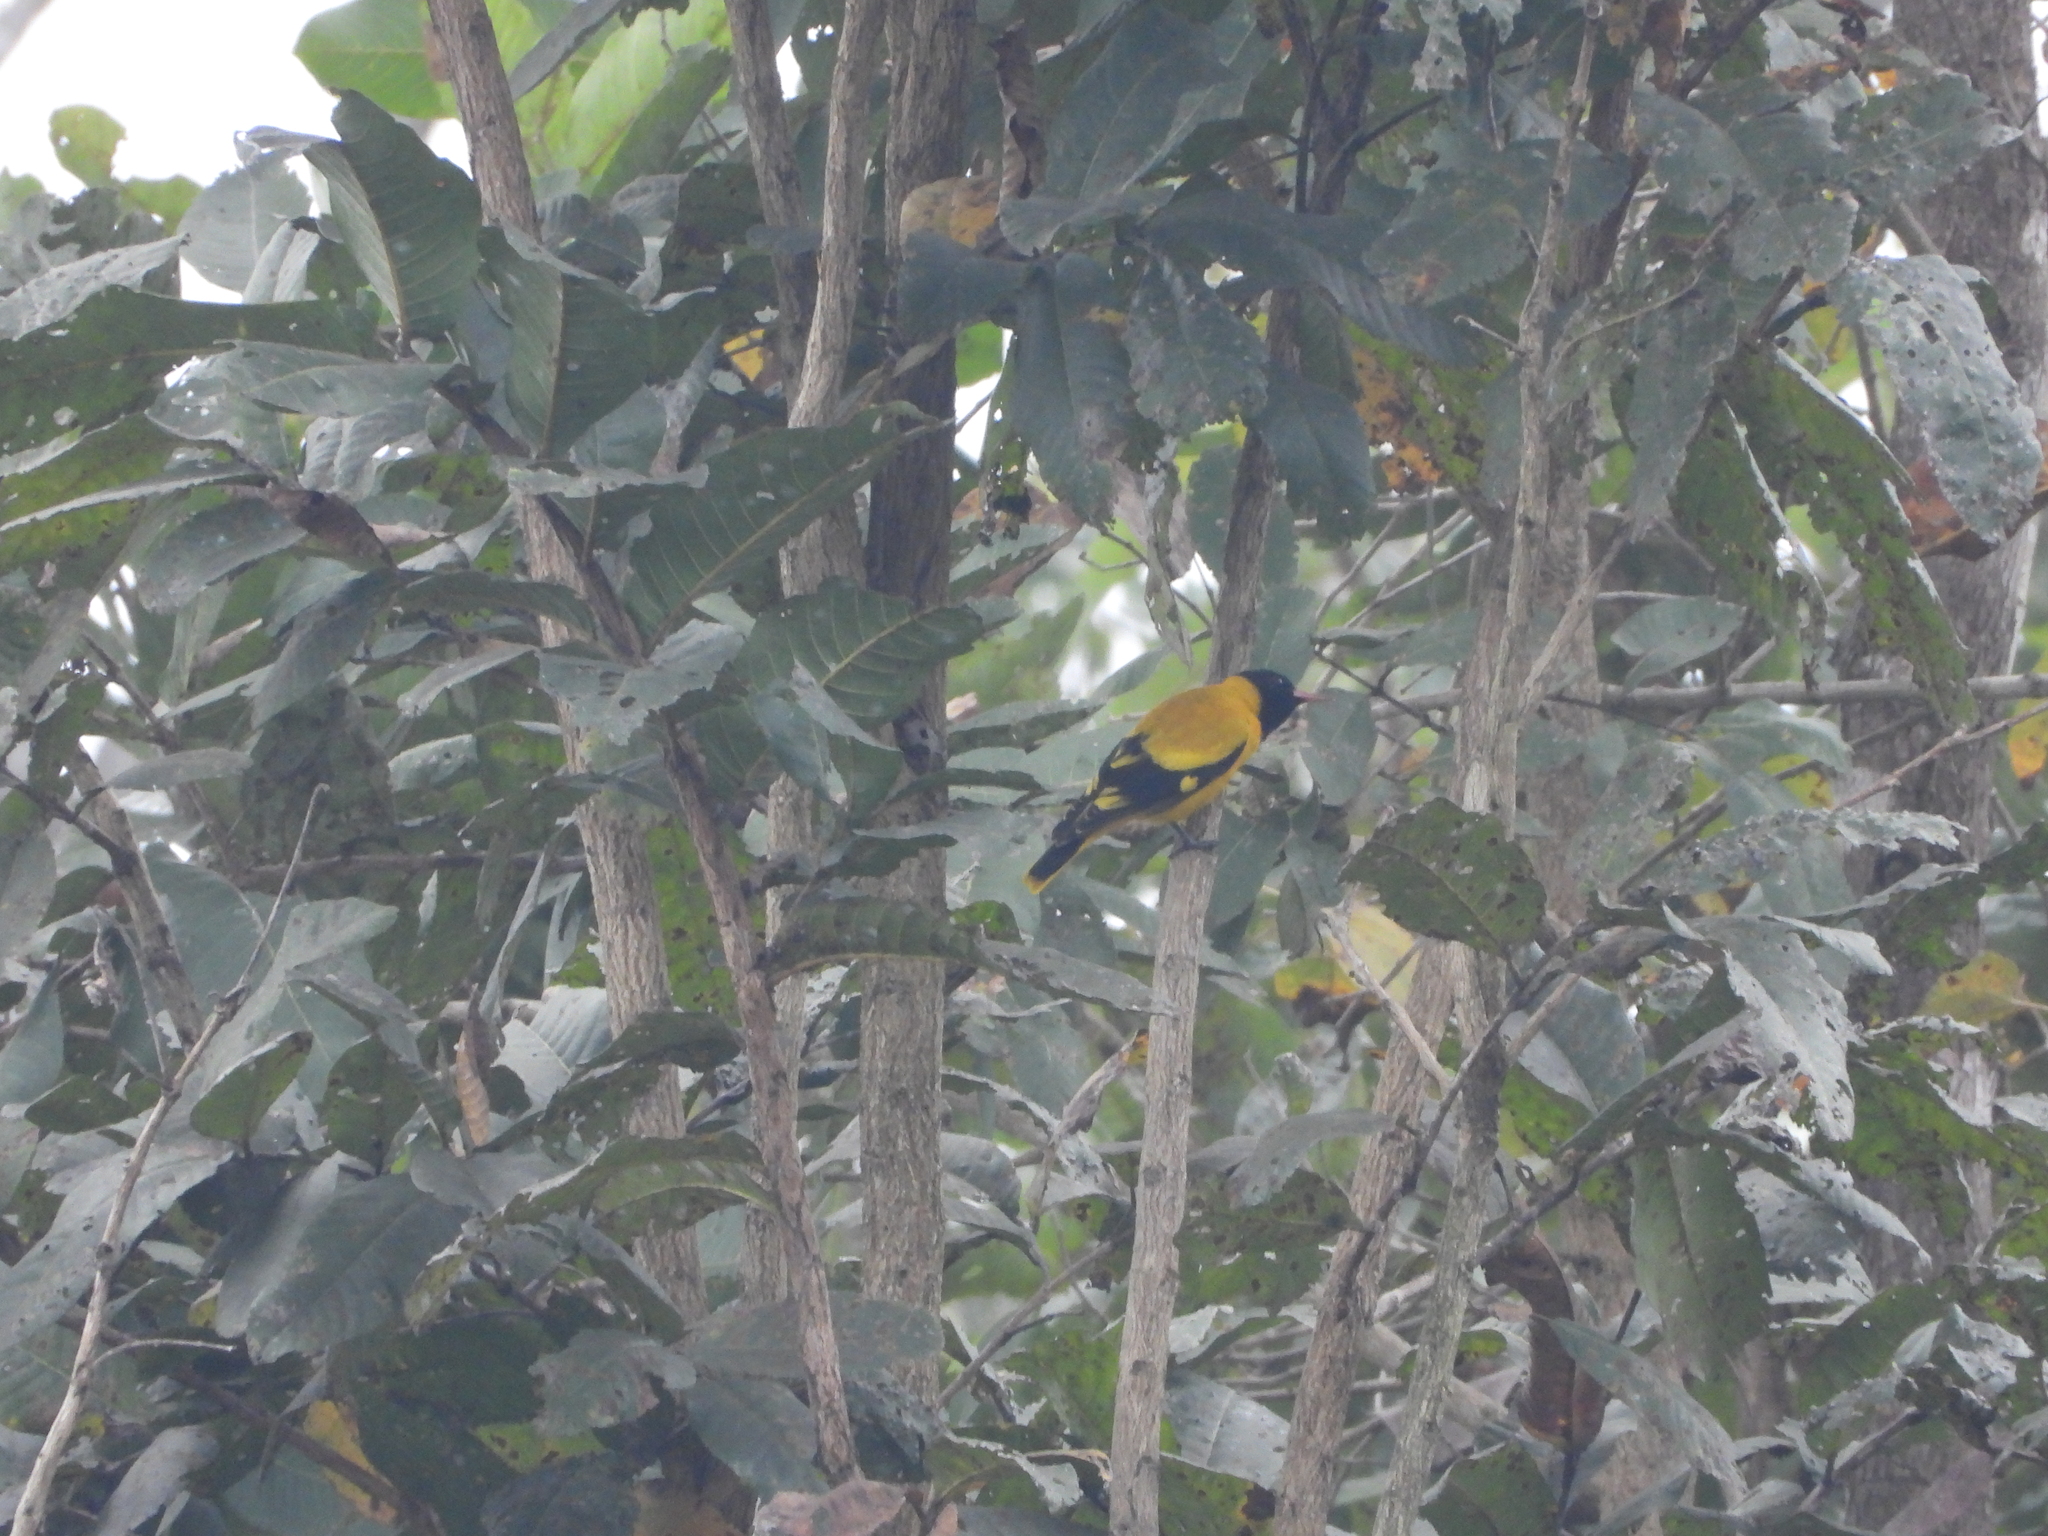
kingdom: Animalia
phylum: Chordata
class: Aves
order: Passeriformes
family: Oriolidae
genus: Oriolus
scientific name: Oriolus xanthornus
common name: Black-hooded oriole
